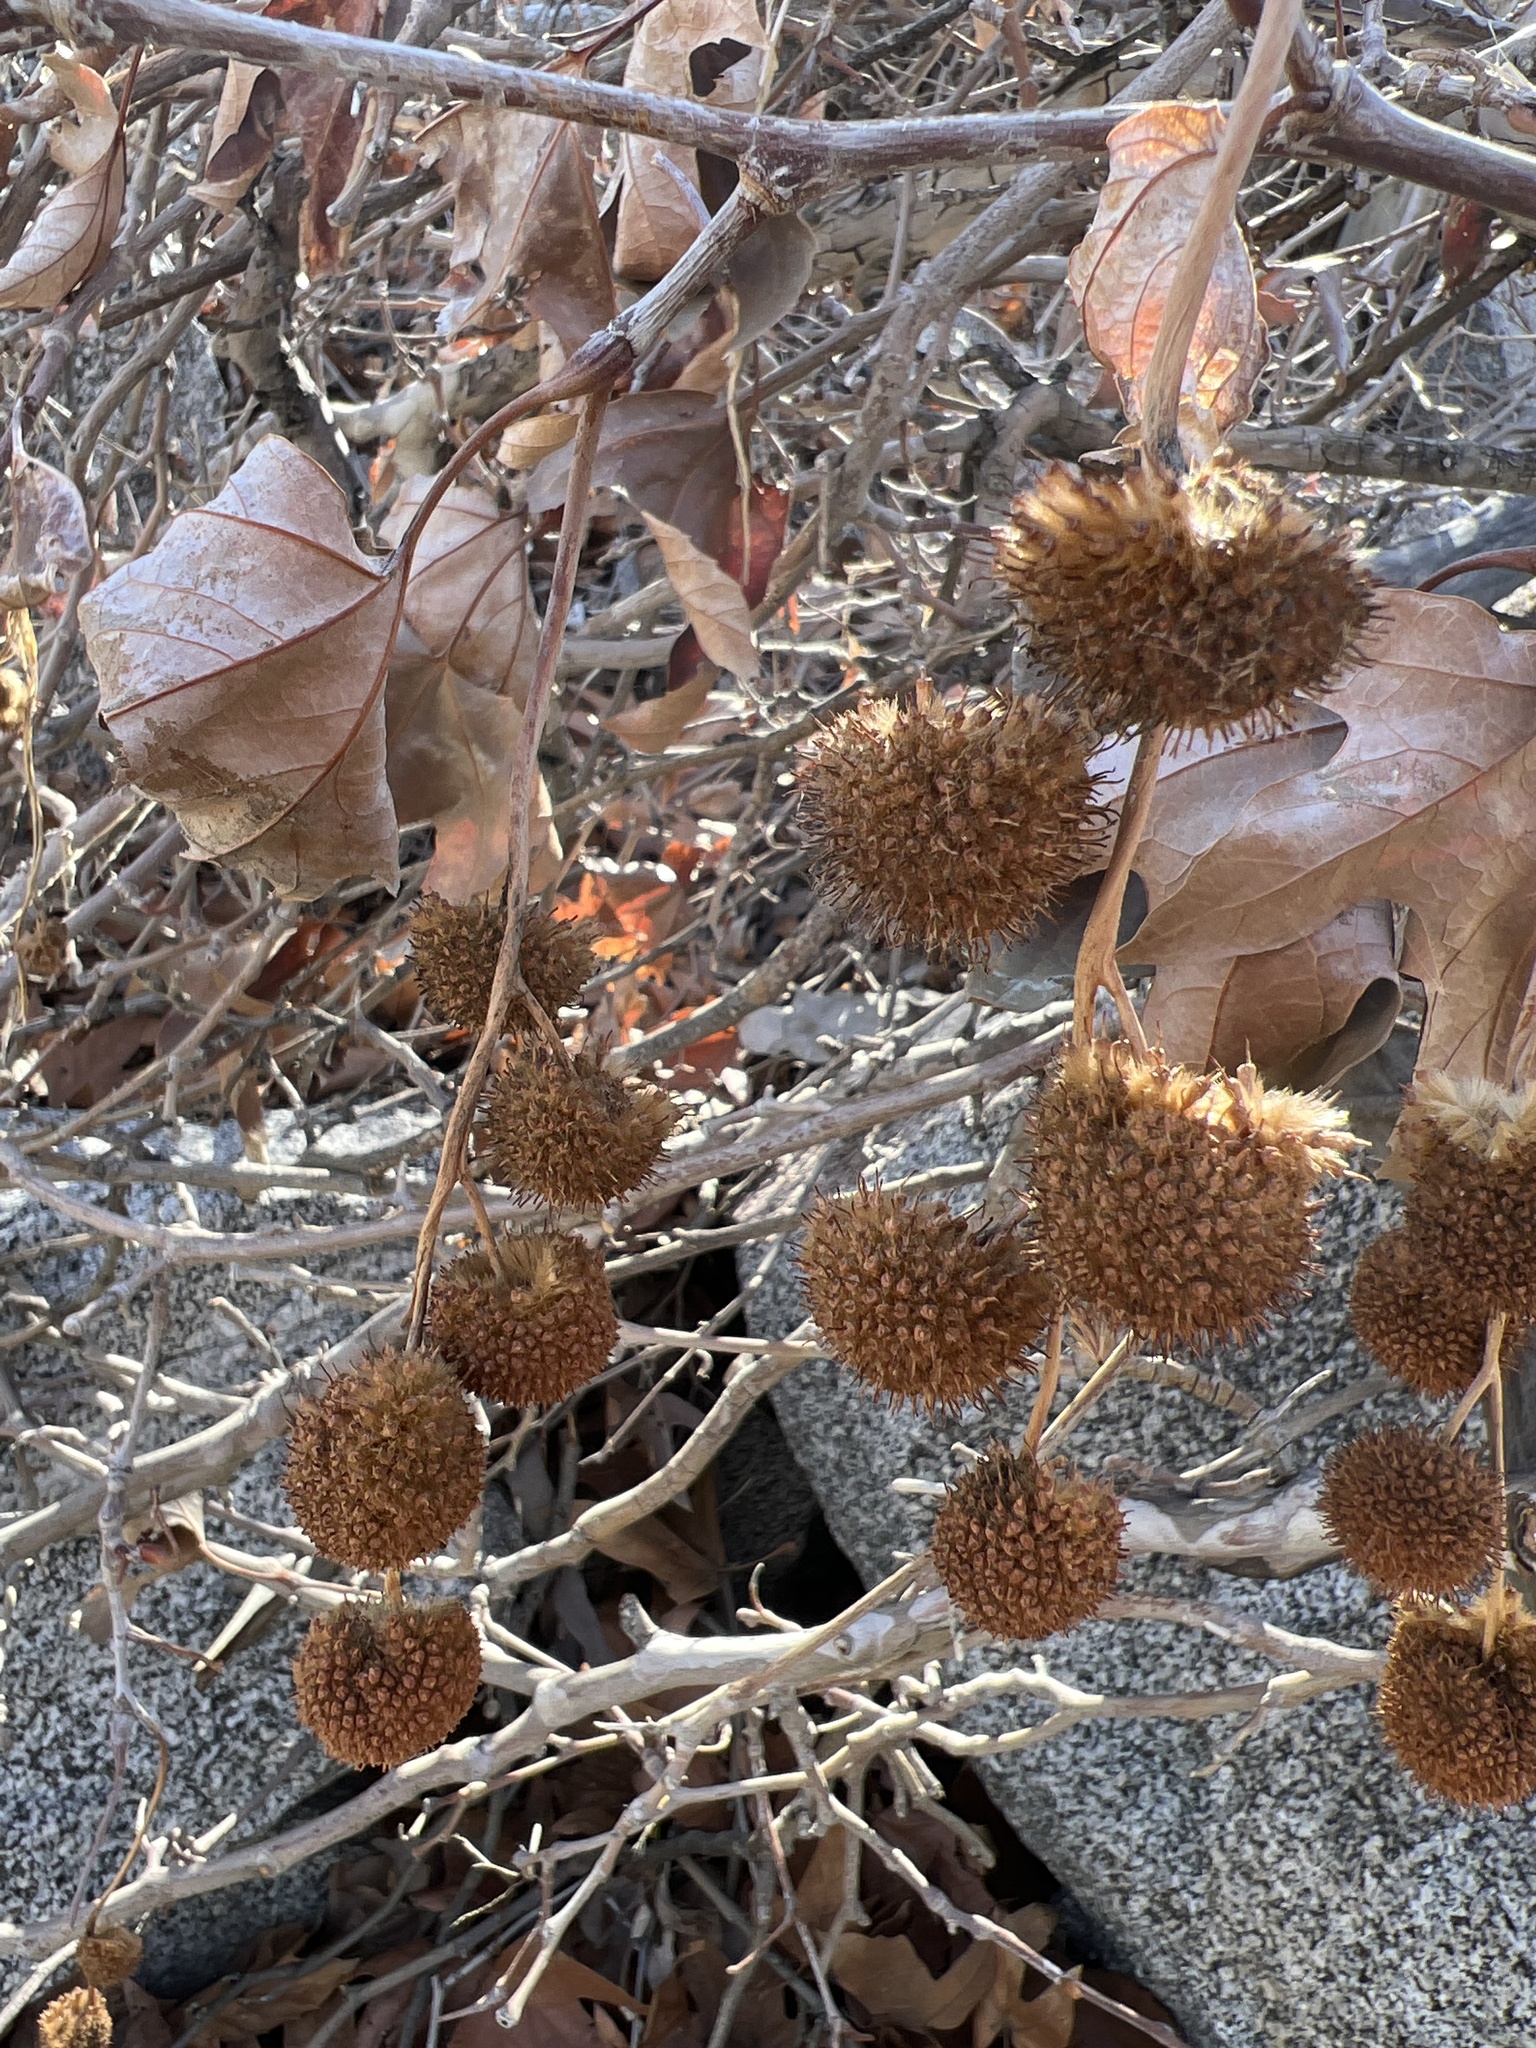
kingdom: Plantae
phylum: Tracheophyta
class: Magnoliopsida
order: Proteales
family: Platanaceae
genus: Platanus
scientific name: Platanus racemosa
